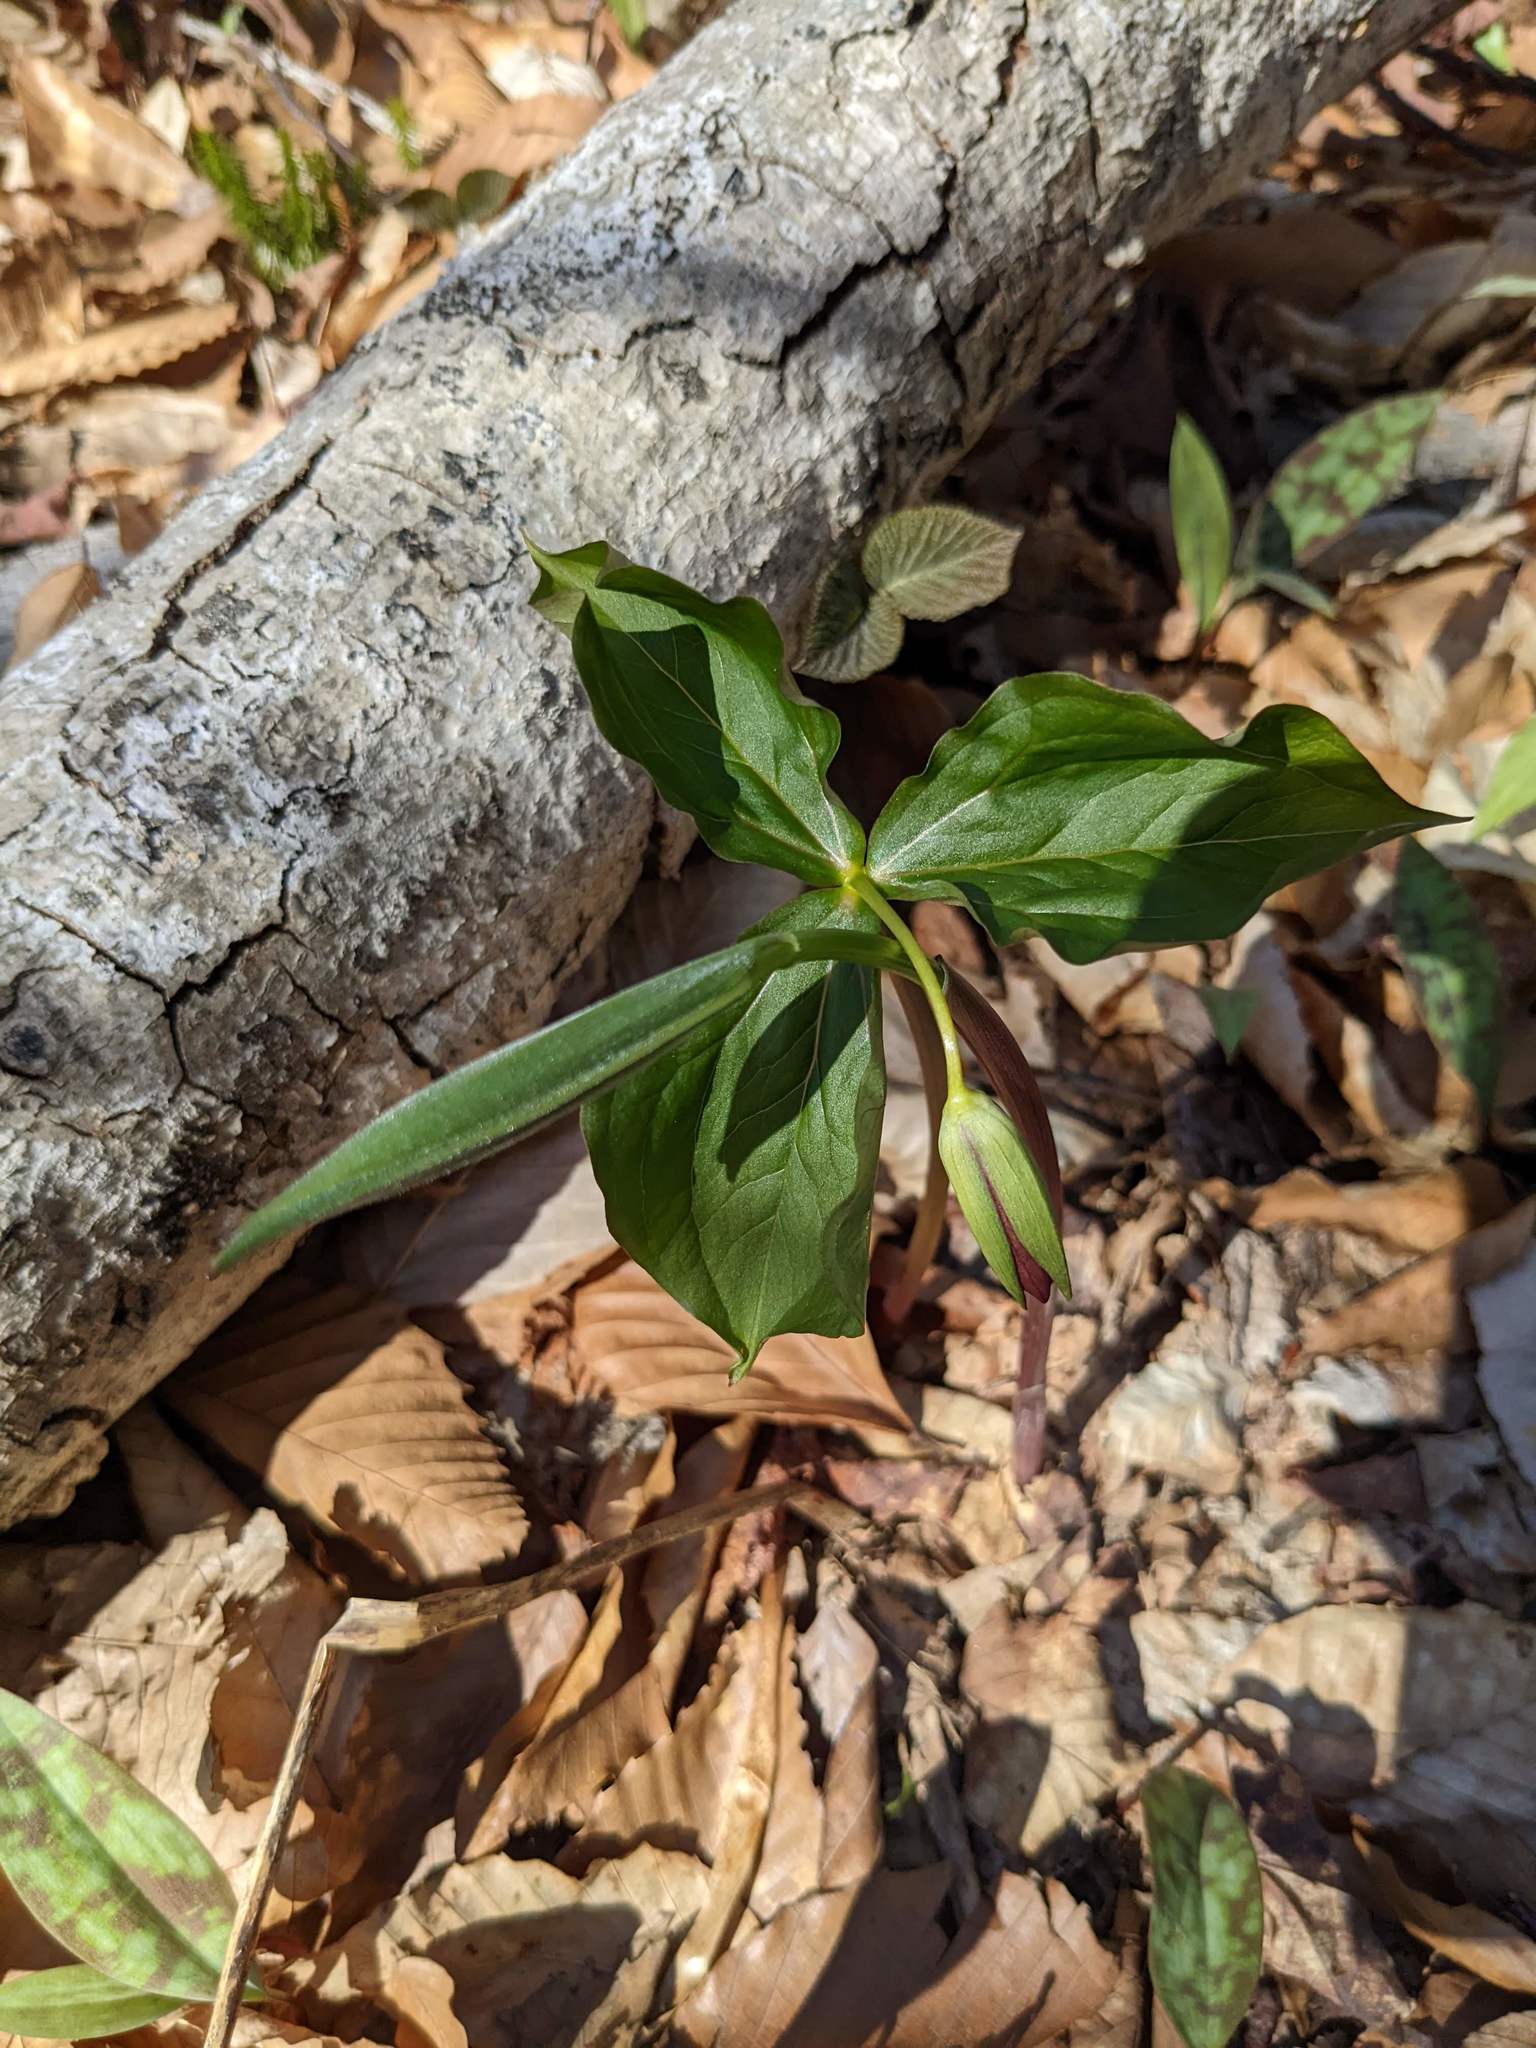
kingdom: Plantae
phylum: Tracheophyta
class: Liliopsida
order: Liliales
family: Melanthiaceae
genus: Trillium
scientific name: Trillium erectum
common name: Purple trillium
